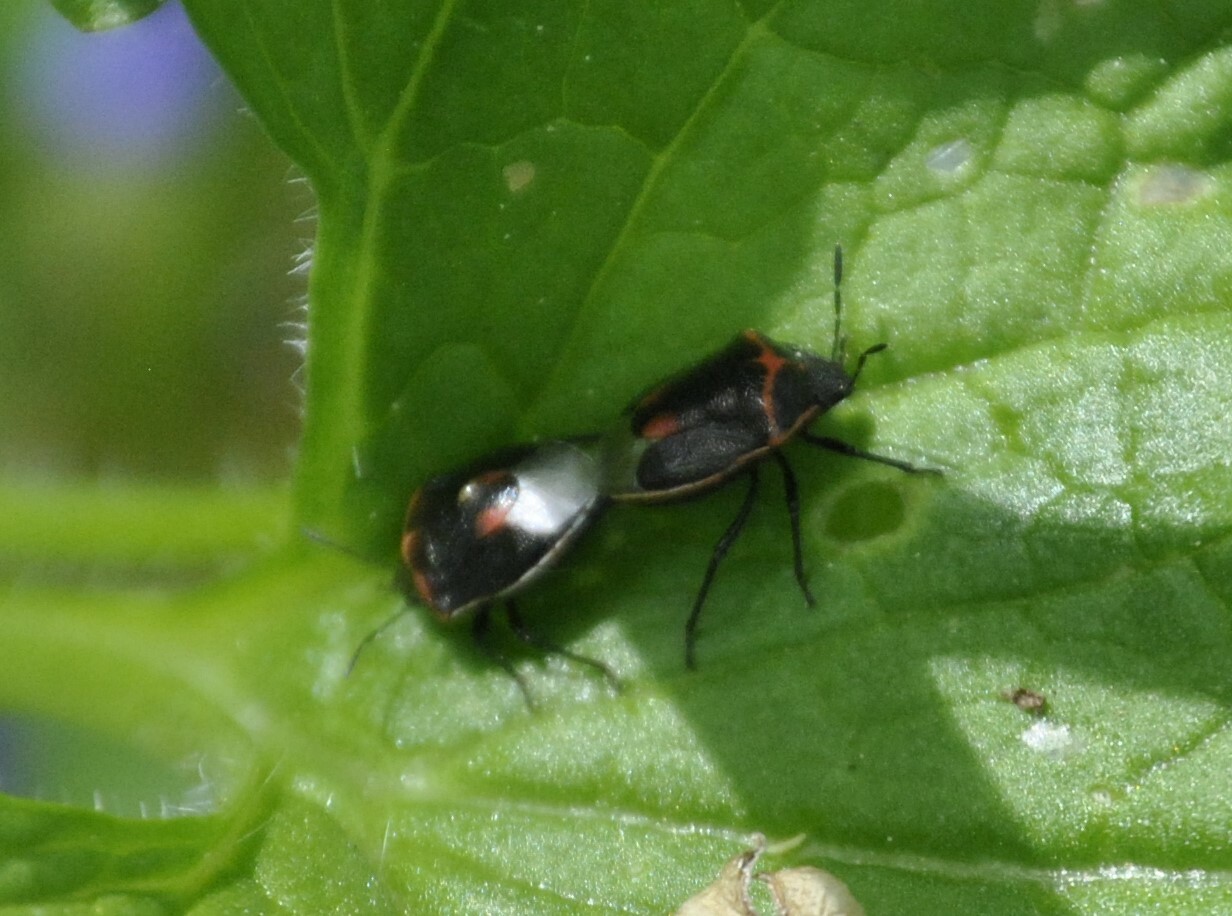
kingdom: Animalia
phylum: Arthropoda
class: Insecta
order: Hemiptera
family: Pentatomidae
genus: Cosmopepla
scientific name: Cosmopepla lintneriana
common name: Twice-stabbed stink bug
